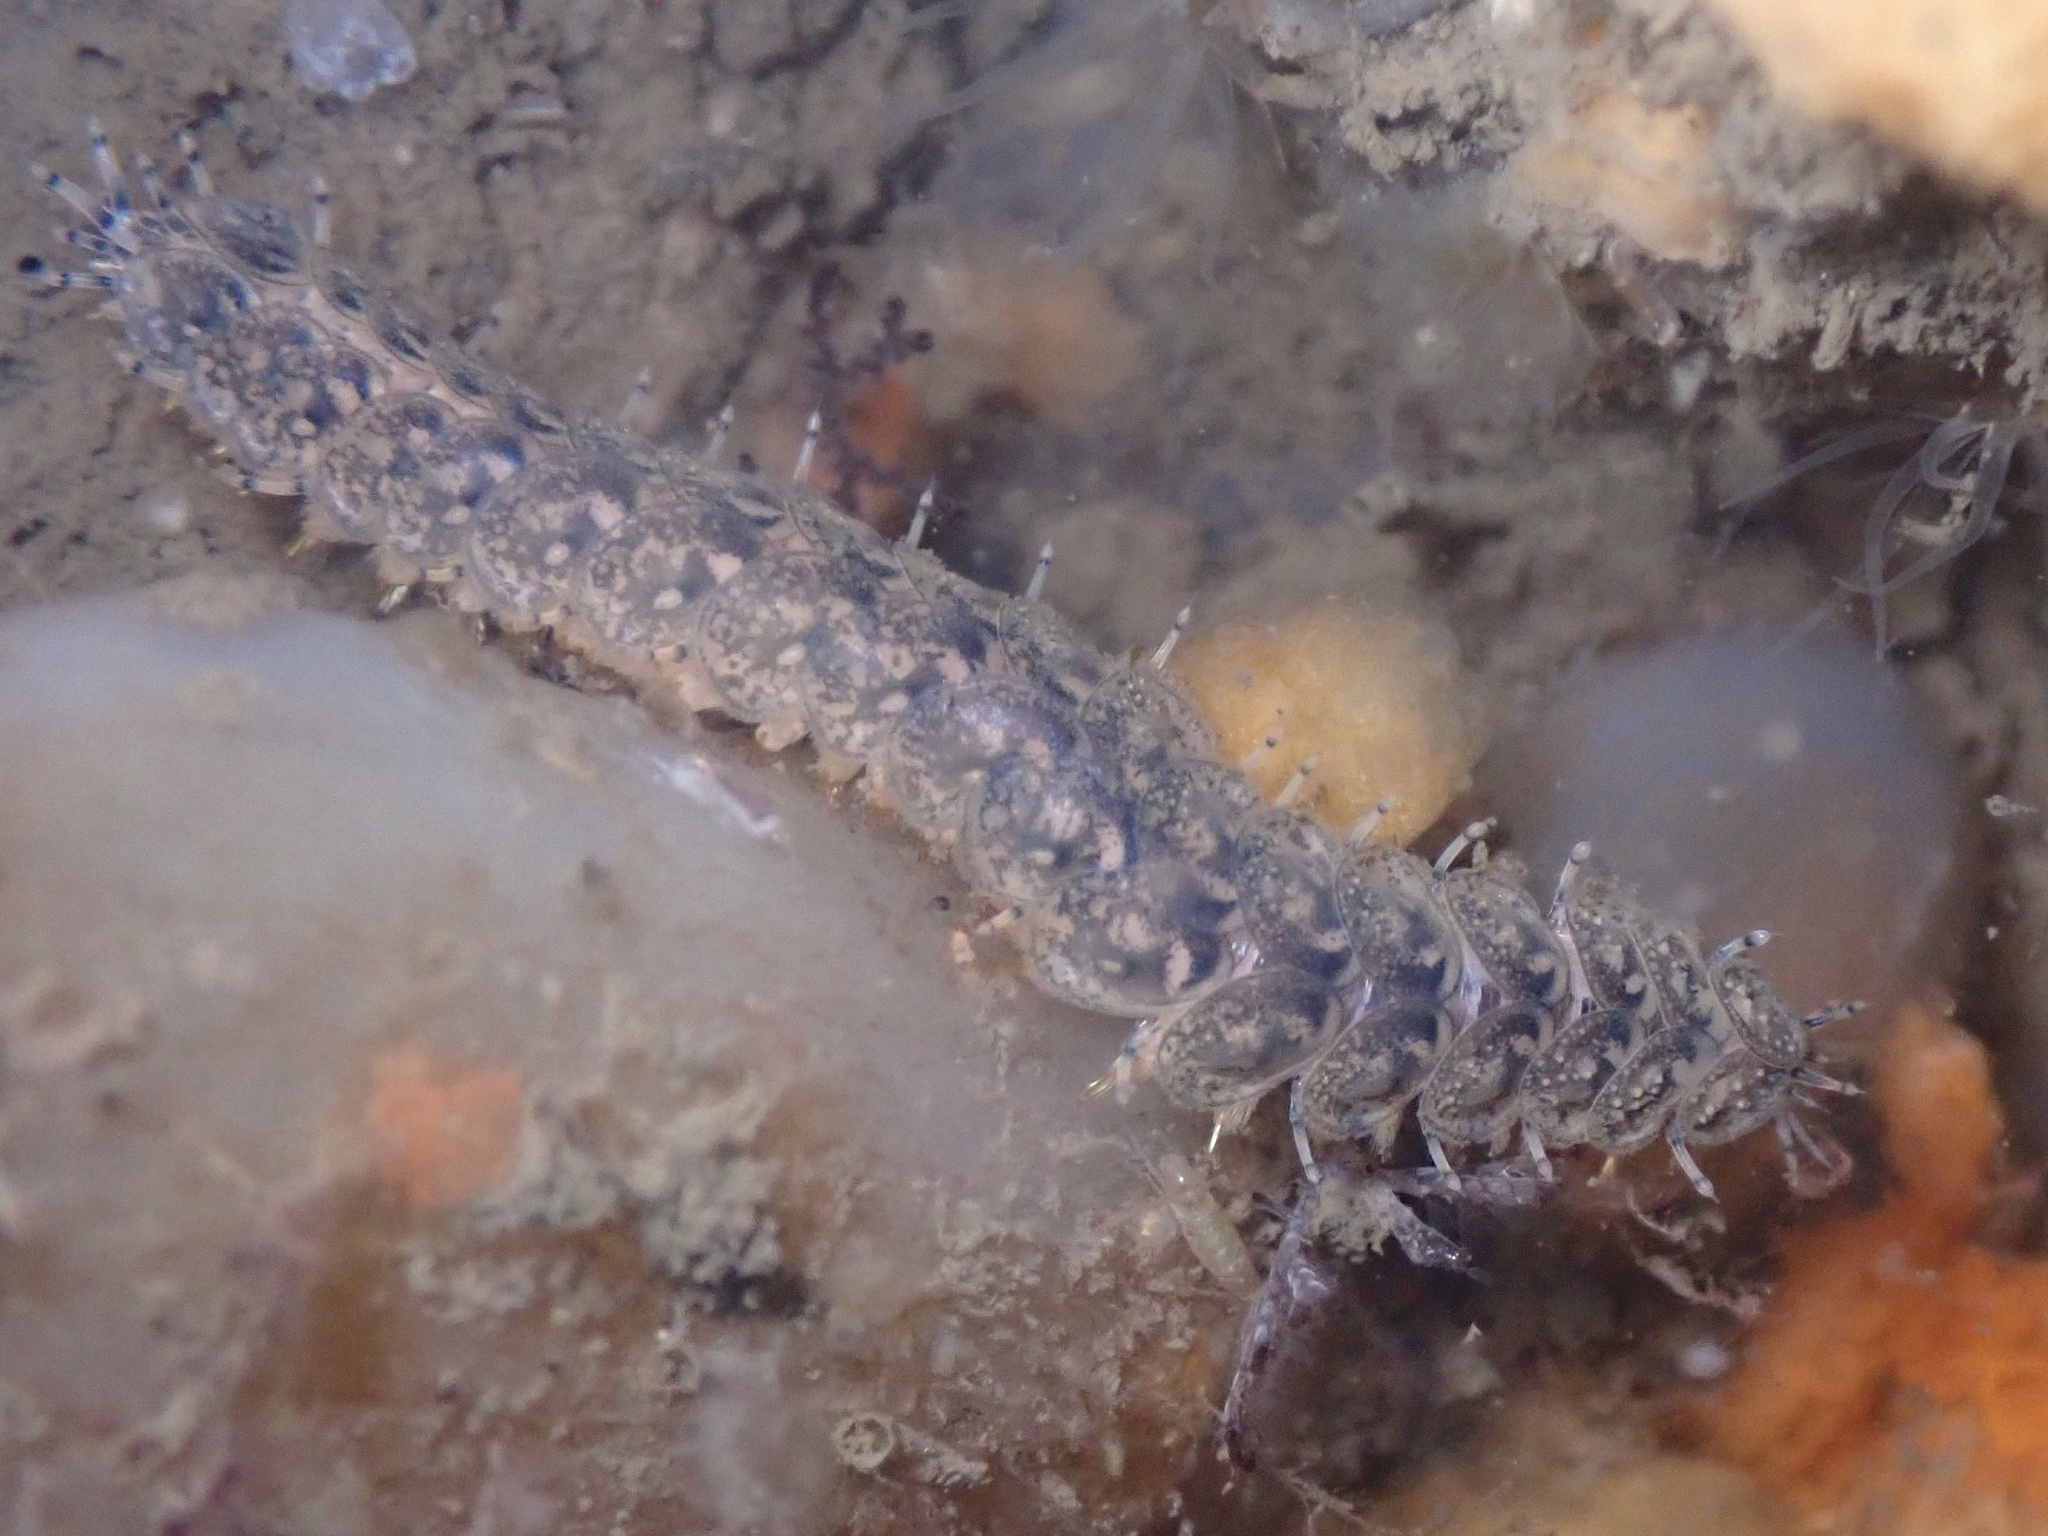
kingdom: Animalia
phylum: Annelida
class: Polychaeta
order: Phyllodocida
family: Polynoidae
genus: Halosydna
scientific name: Halosydna brevisetosa
